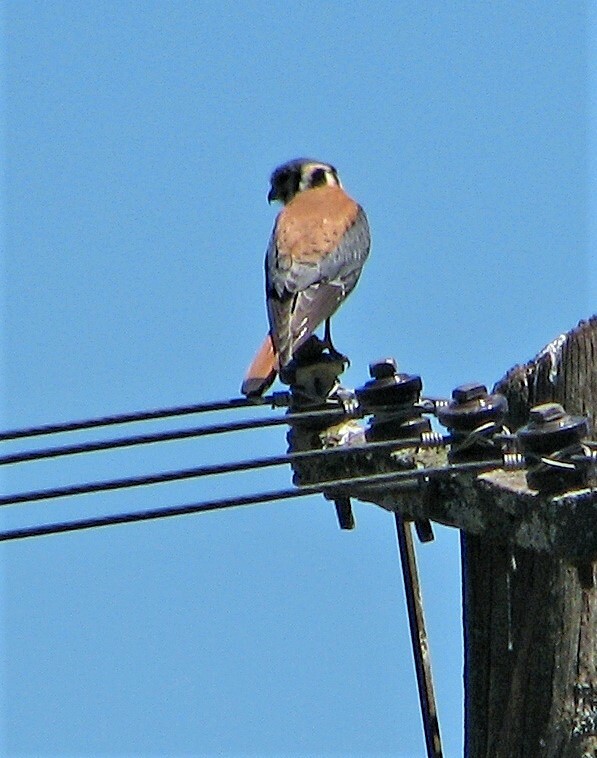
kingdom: Animalia
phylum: Chordata
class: Aves
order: Falconiformes
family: Falconidae
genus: Falco
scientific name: Falco sparverius
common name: American kestrel
